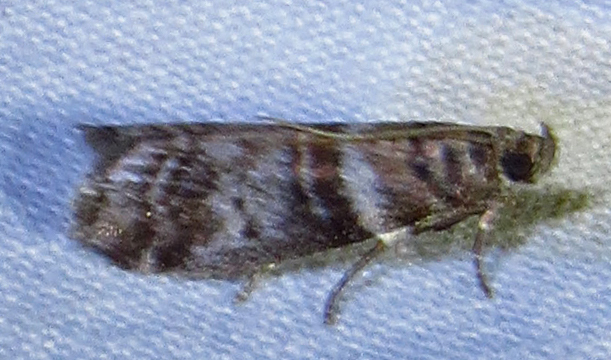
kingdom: Animalia
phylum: Arthropoda
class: Insecta
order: Lepidoptera
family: Pyralidae
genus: Sciota
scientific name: Sciota uvinella
